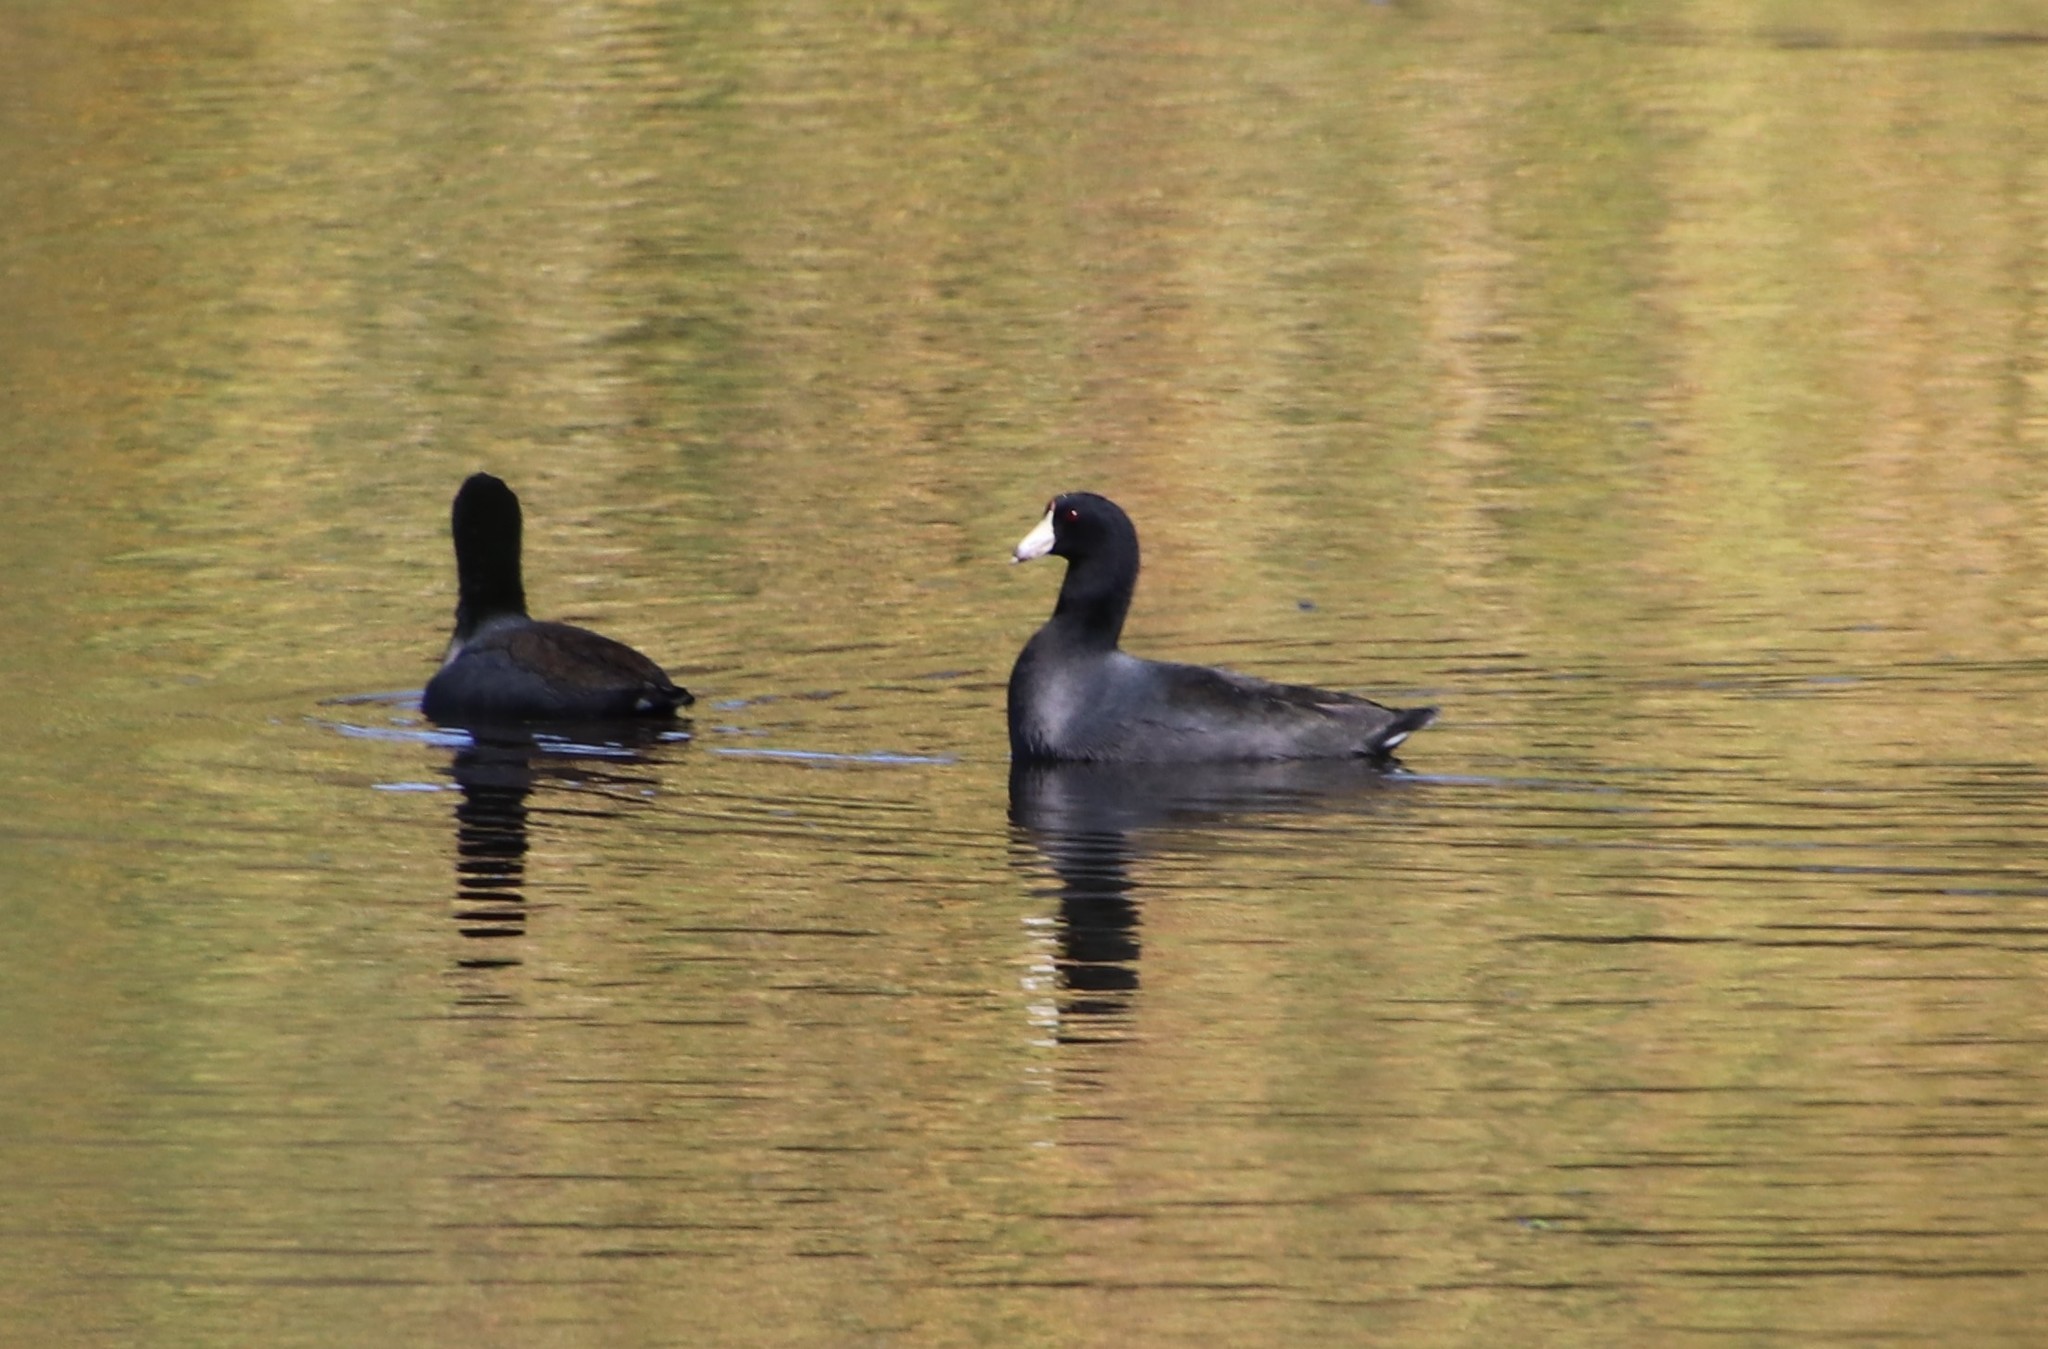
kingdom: Animalia
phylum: Chordata
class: Aves
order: Gruiformes
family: Rallidae
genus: Fulica
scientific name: Fulica americana
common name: American coot
